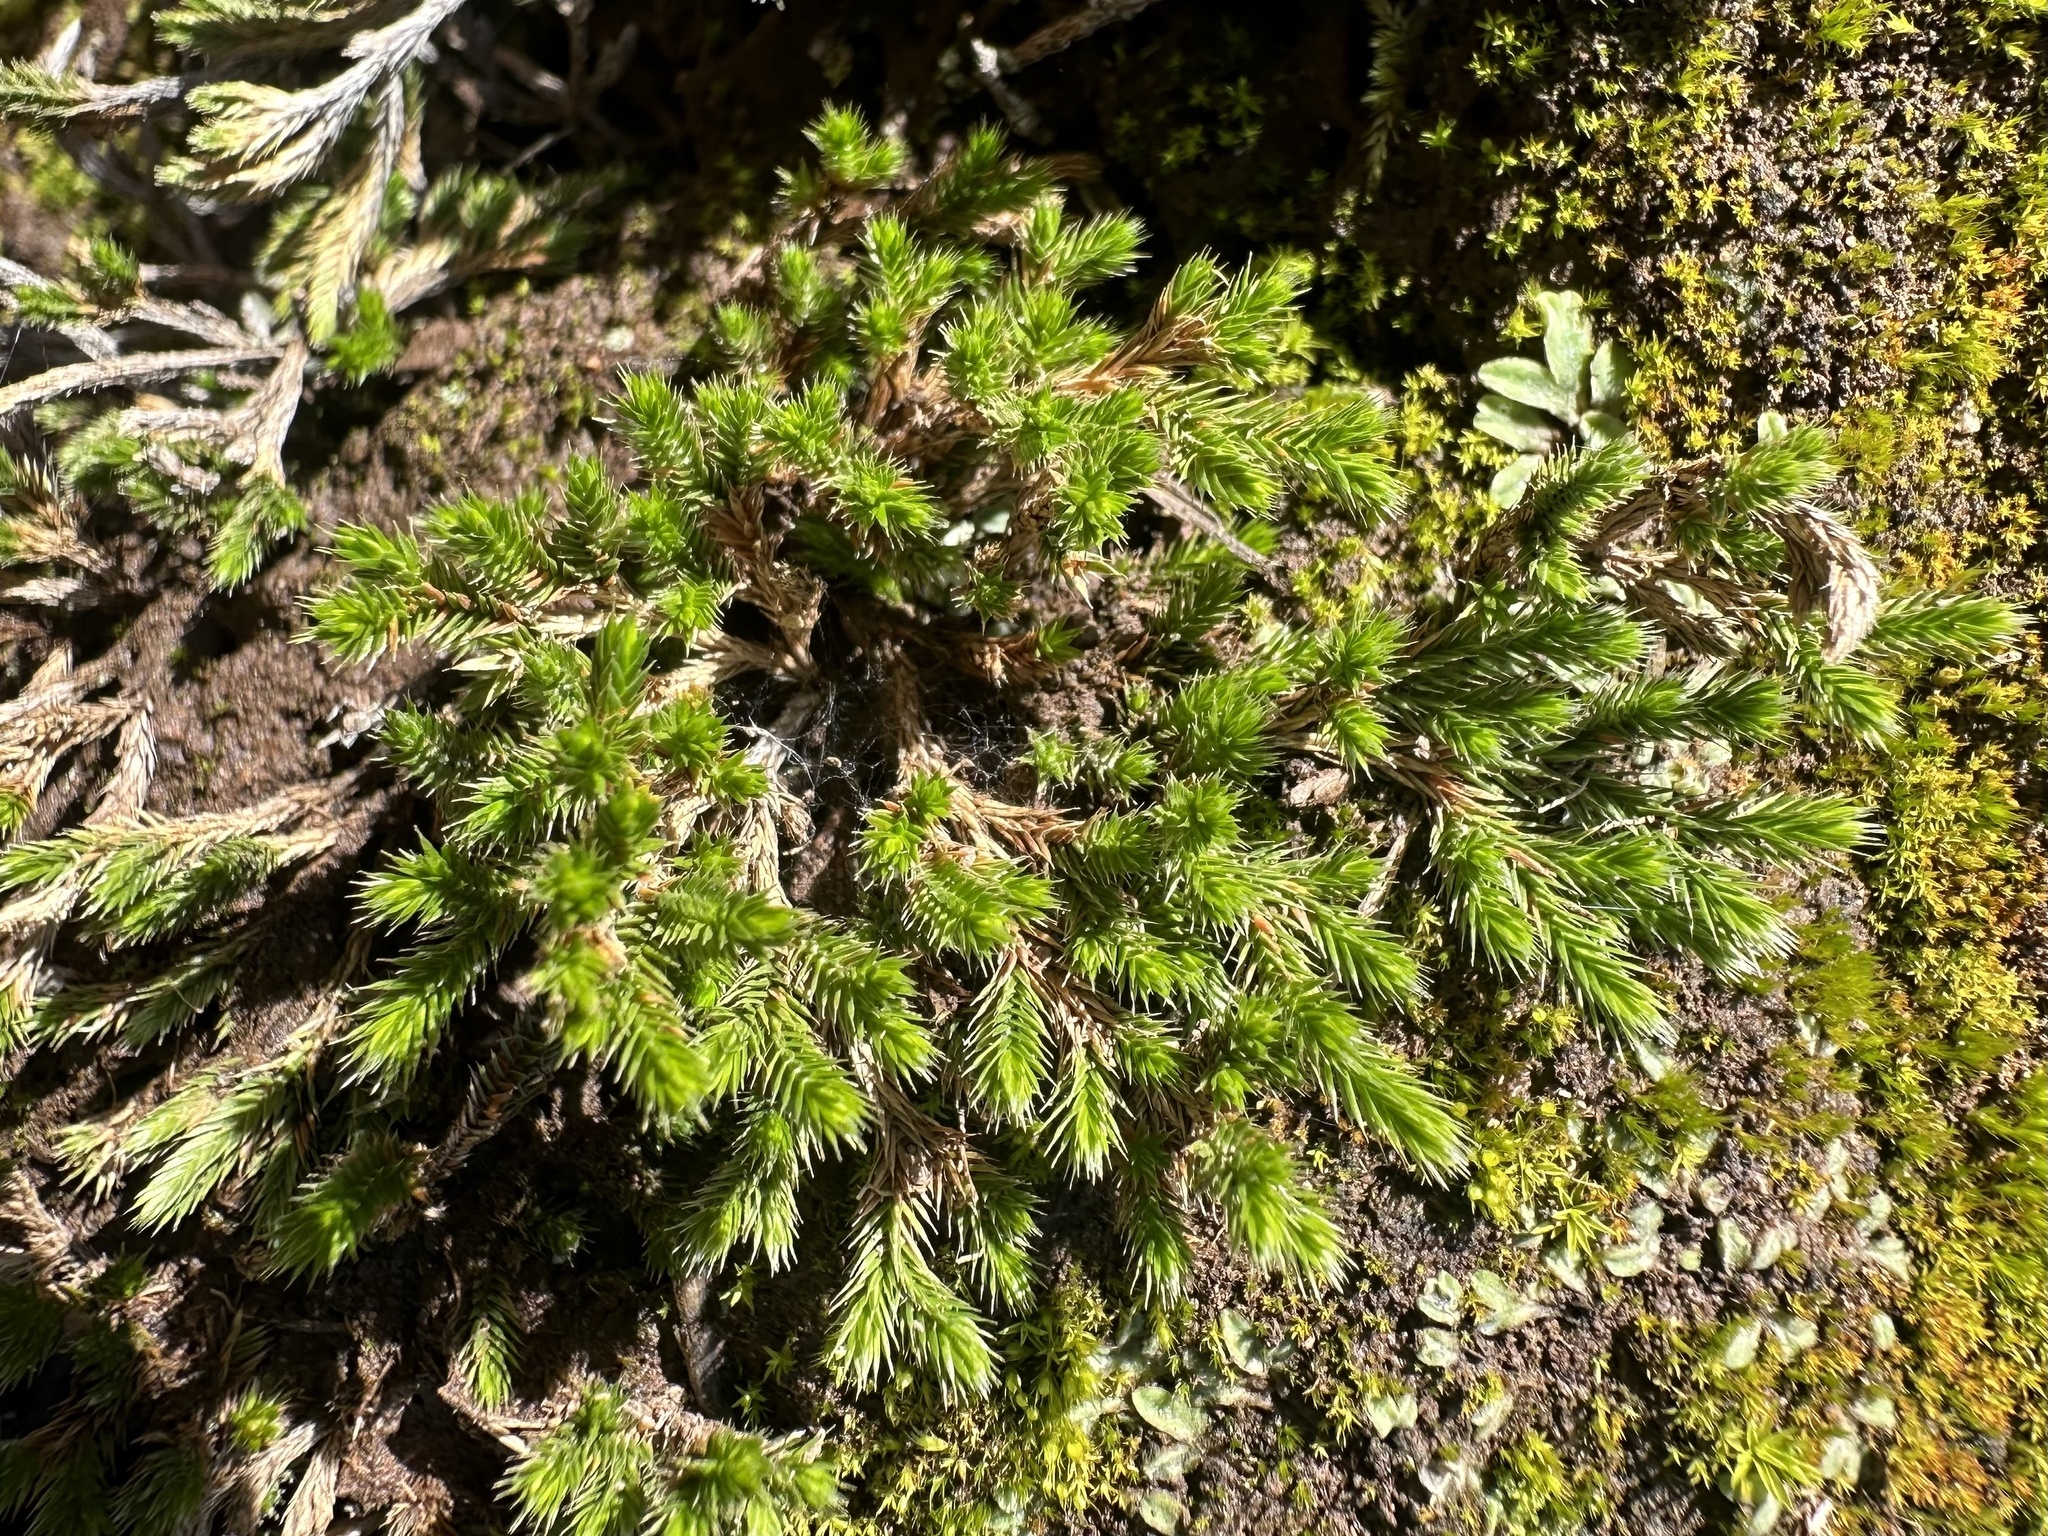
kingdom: Plantae
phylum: Tracheophyta
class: Lycopodiopsida
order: Selaginellales
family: Selaginellaceae
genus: Selaginella
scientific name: Selaginella bigelovii
